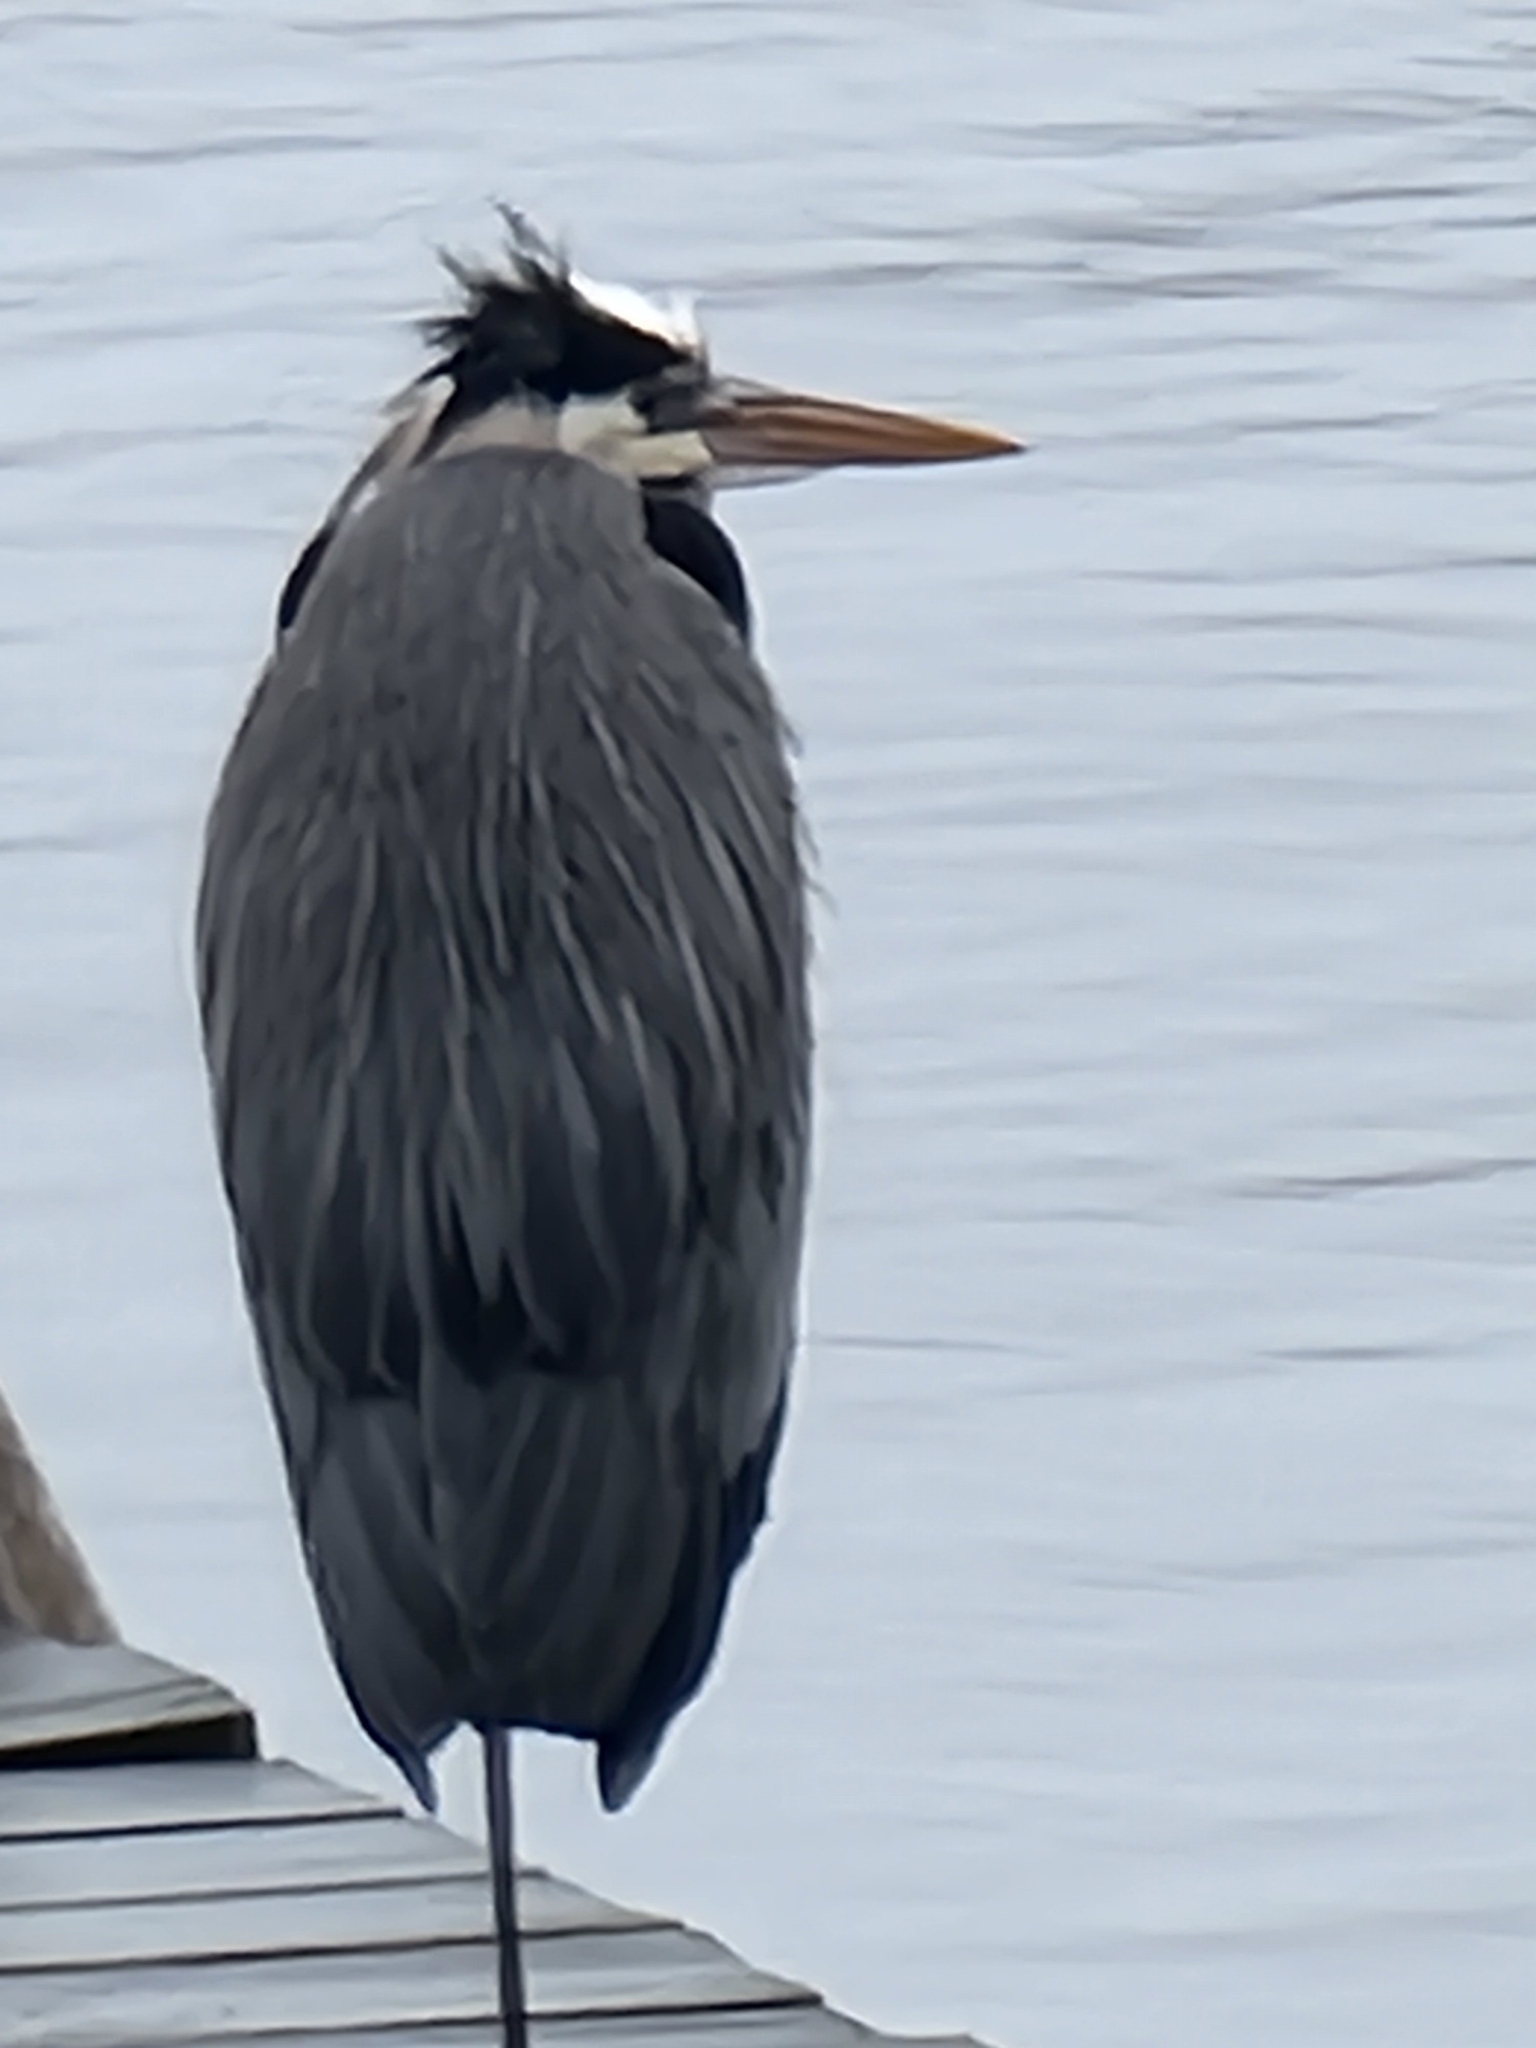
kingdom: Animalia
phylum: Chordata
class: Aves
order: Pelecaniformes
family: Ardeidae
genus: Ardea
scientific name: Ardea herodias
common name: Great blue heron
